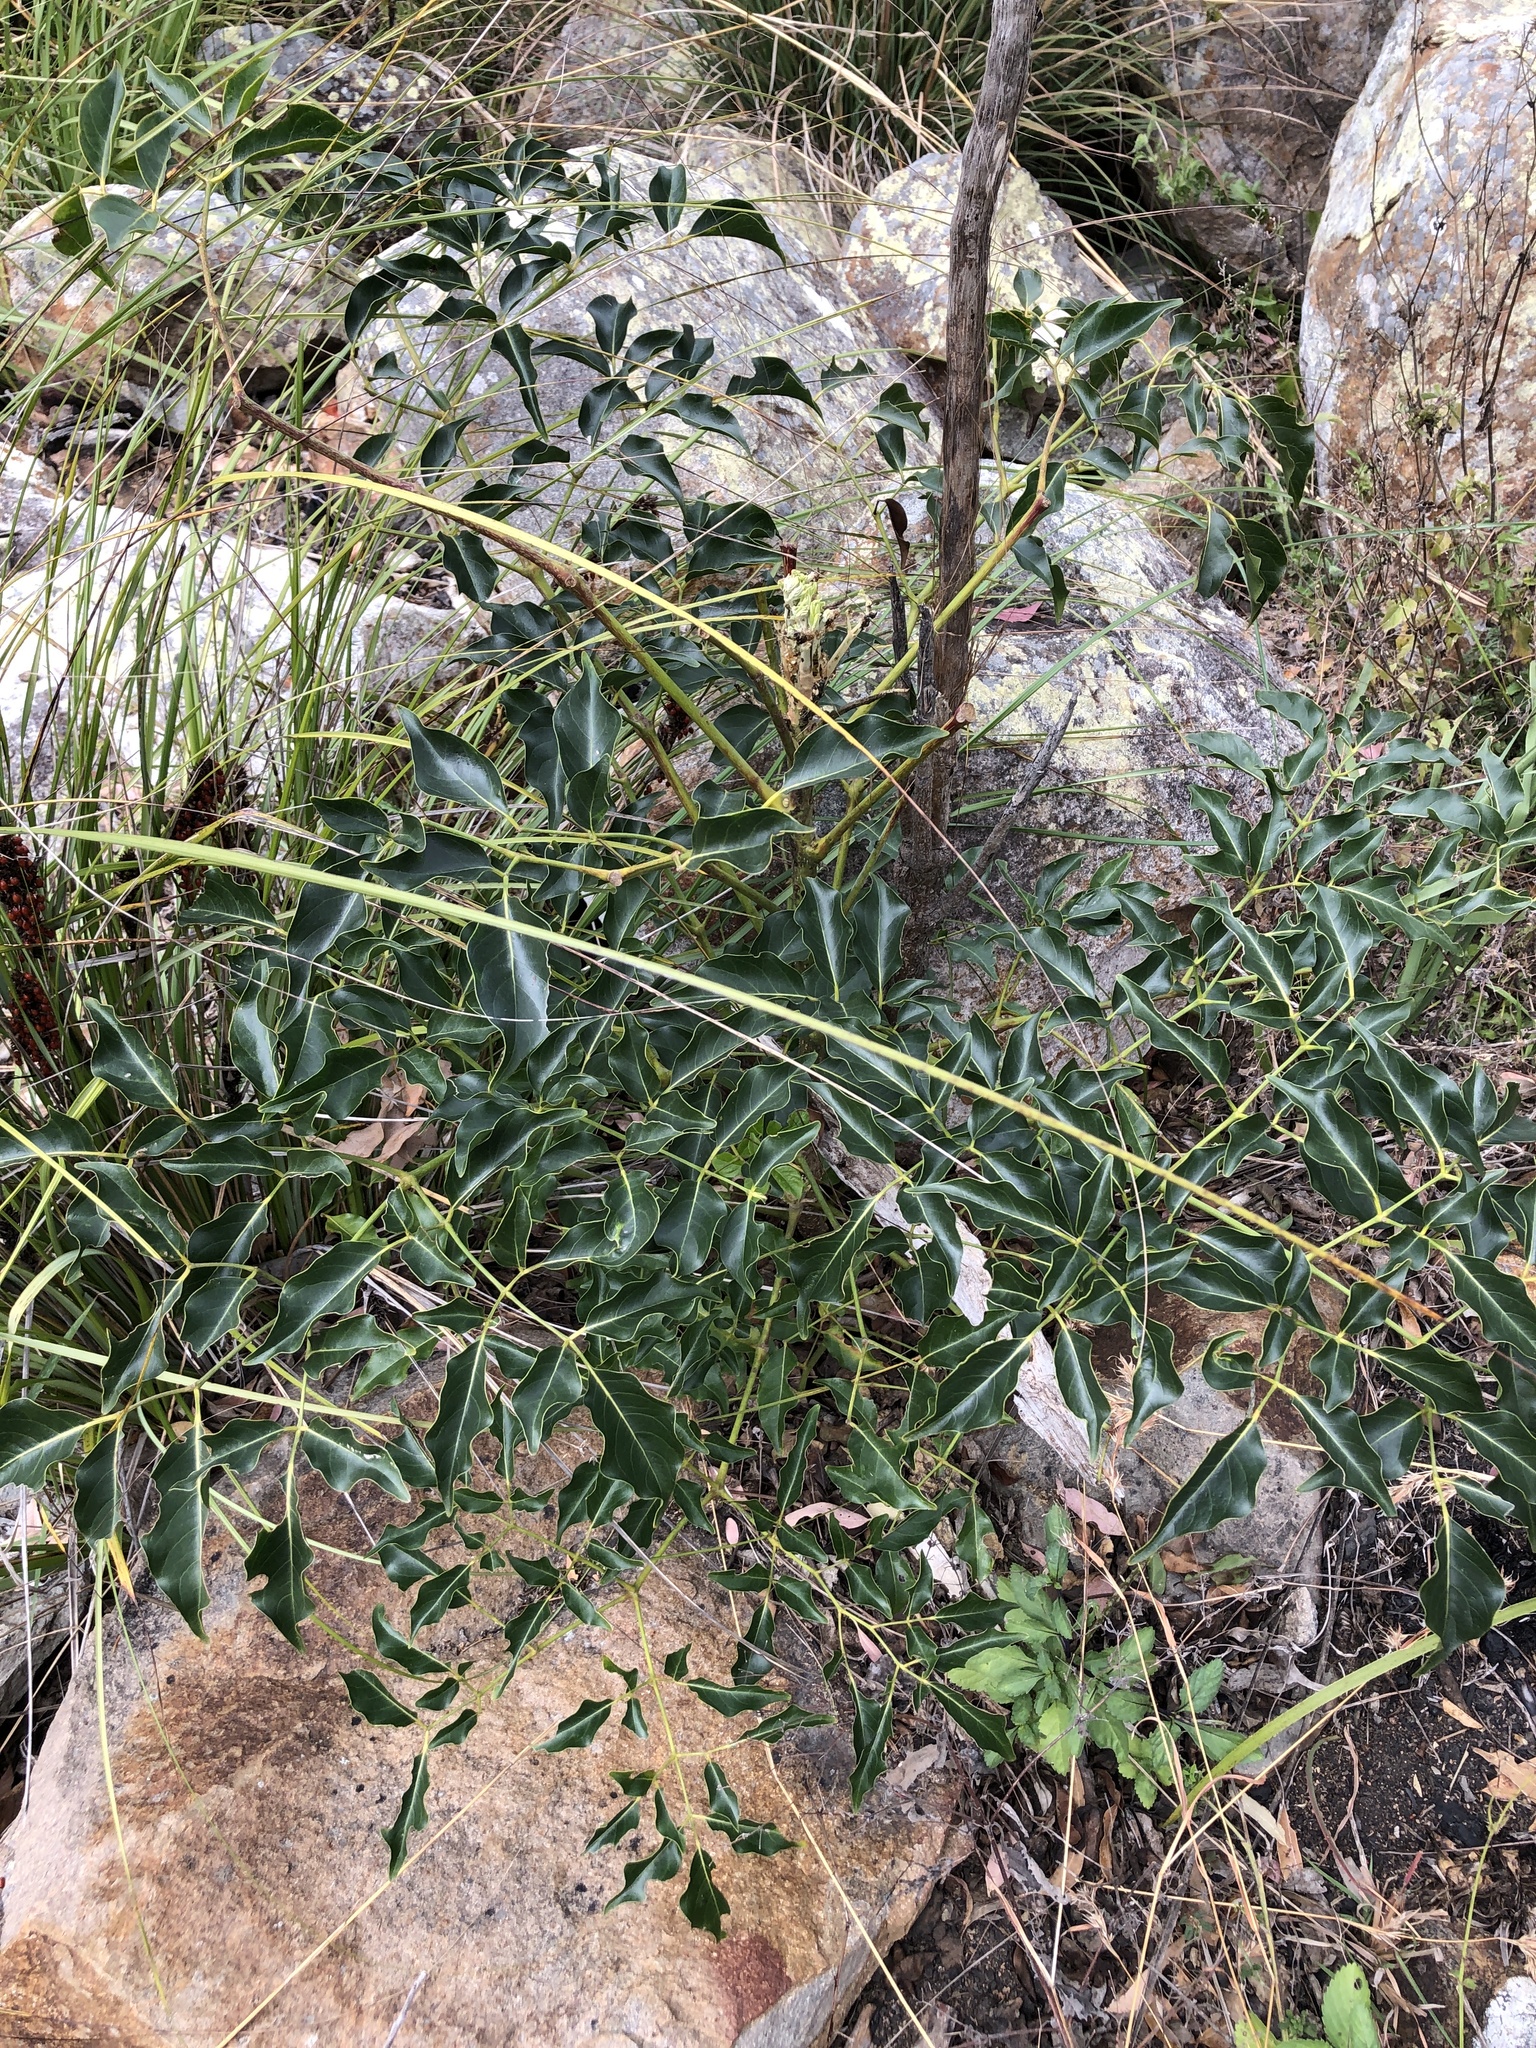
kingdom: Plantae
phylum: Tracheophyta
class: Magnoliopsida
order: Apiales
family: Araliaceae
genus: Polyscias
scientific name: Polyscias elegans
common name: Mowbulan whitewood
